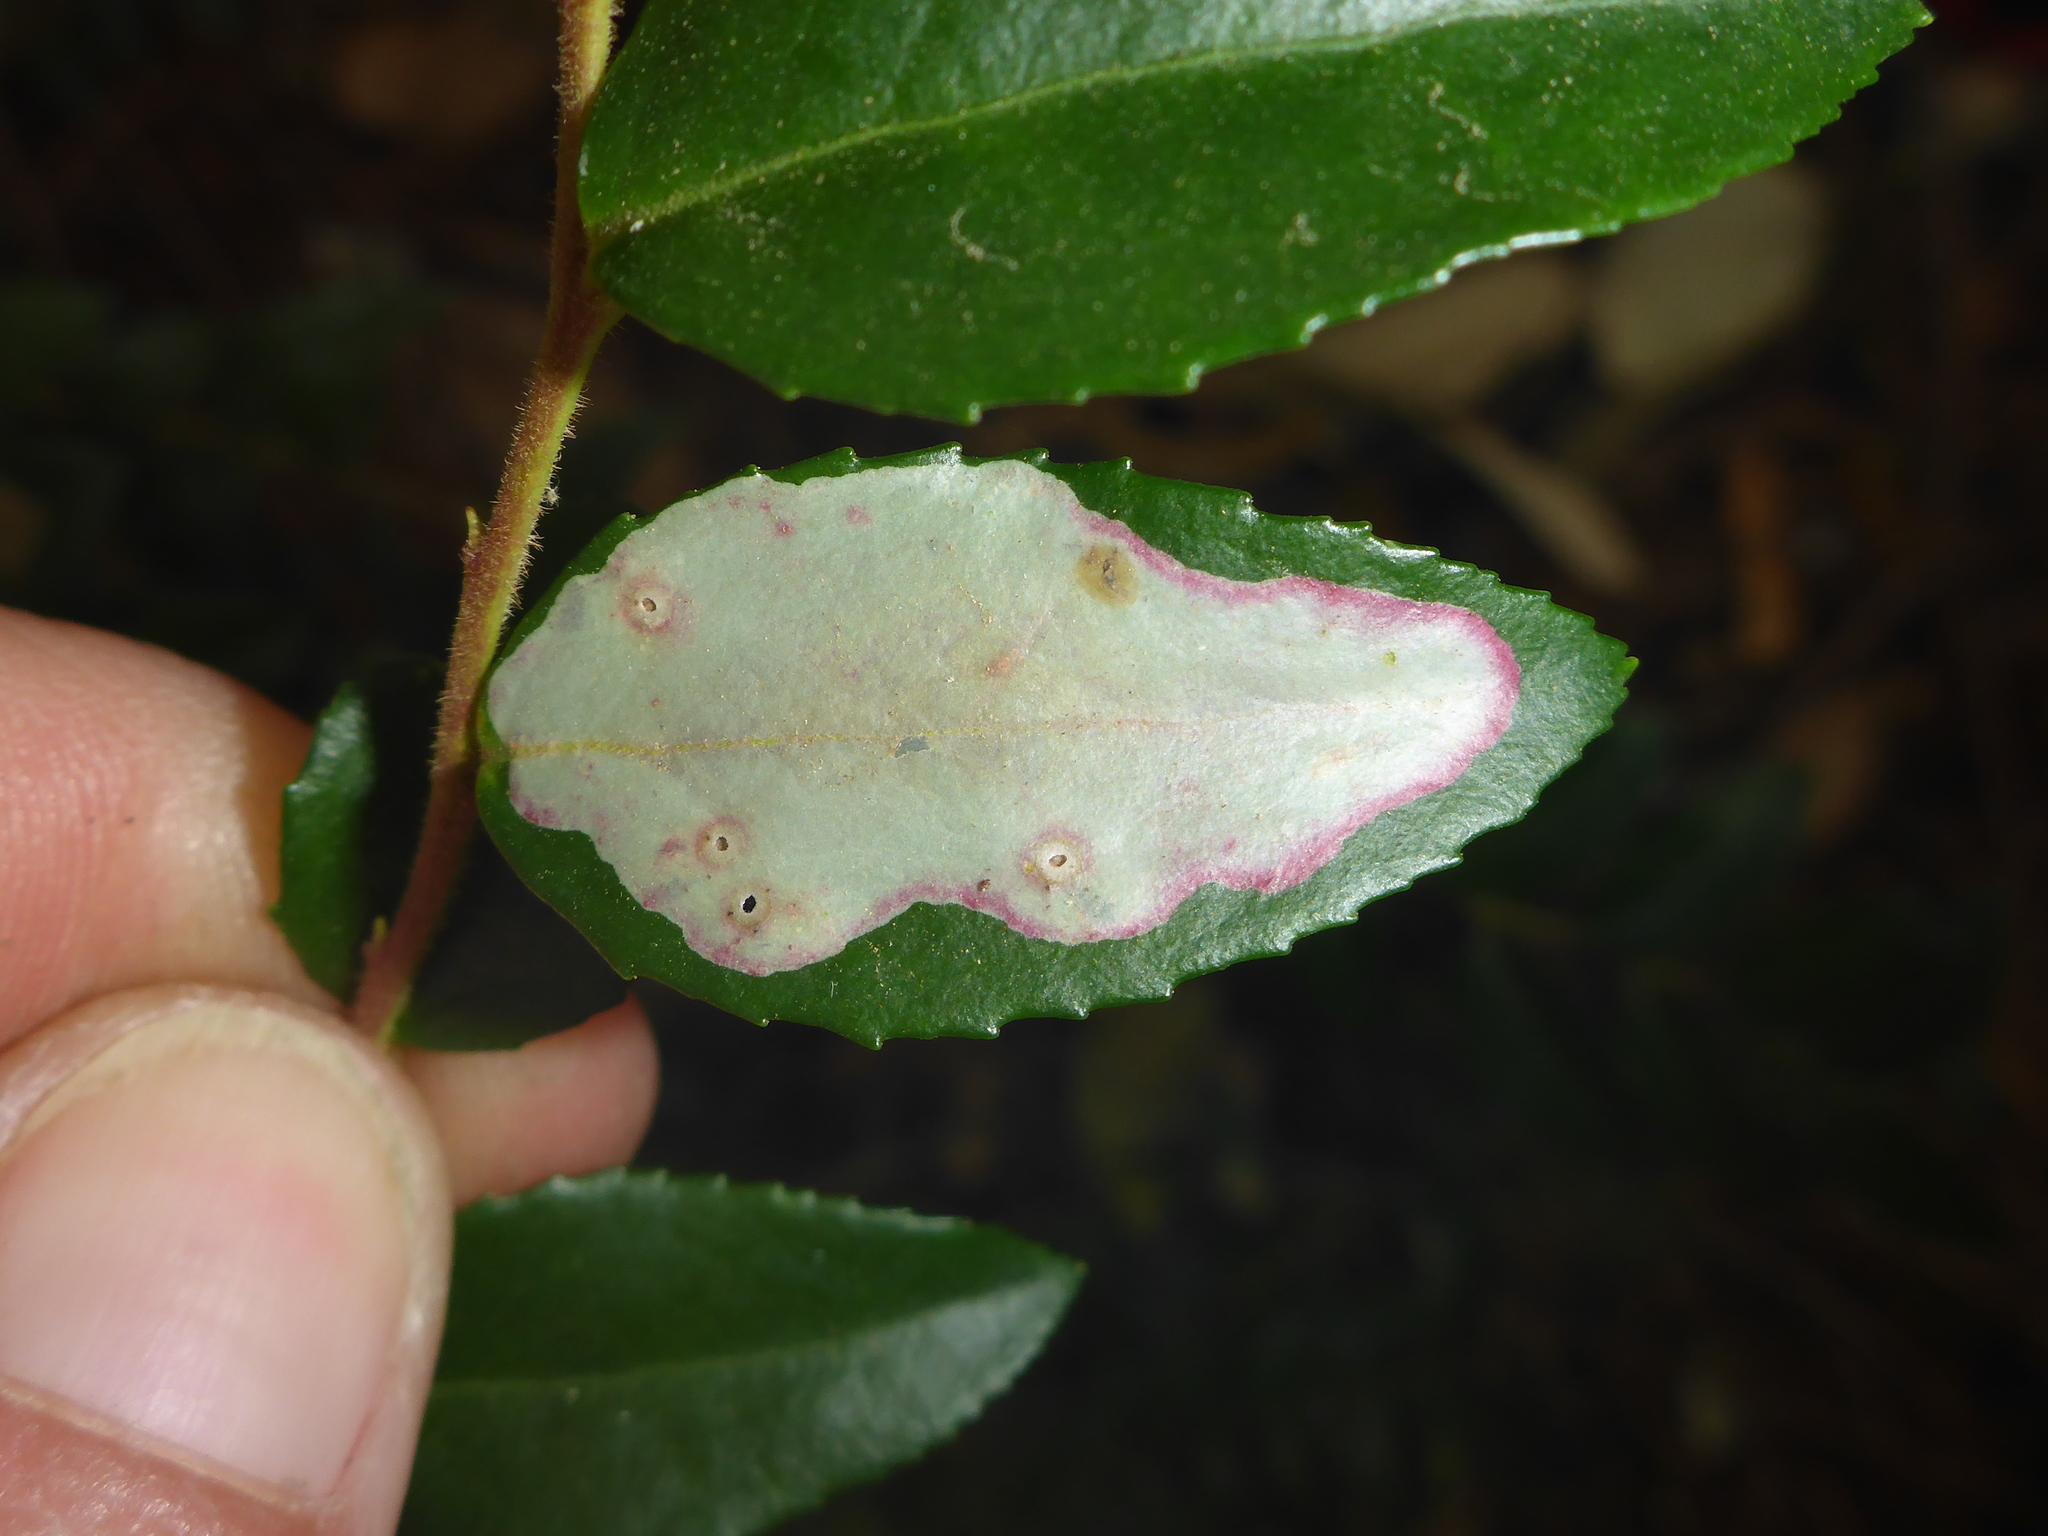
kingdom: Animalia
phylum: Arthropoda
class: Insecta
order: Lepidoptera
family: Gracillariidae
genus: Cameraria
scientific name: Cameraria nemoris
